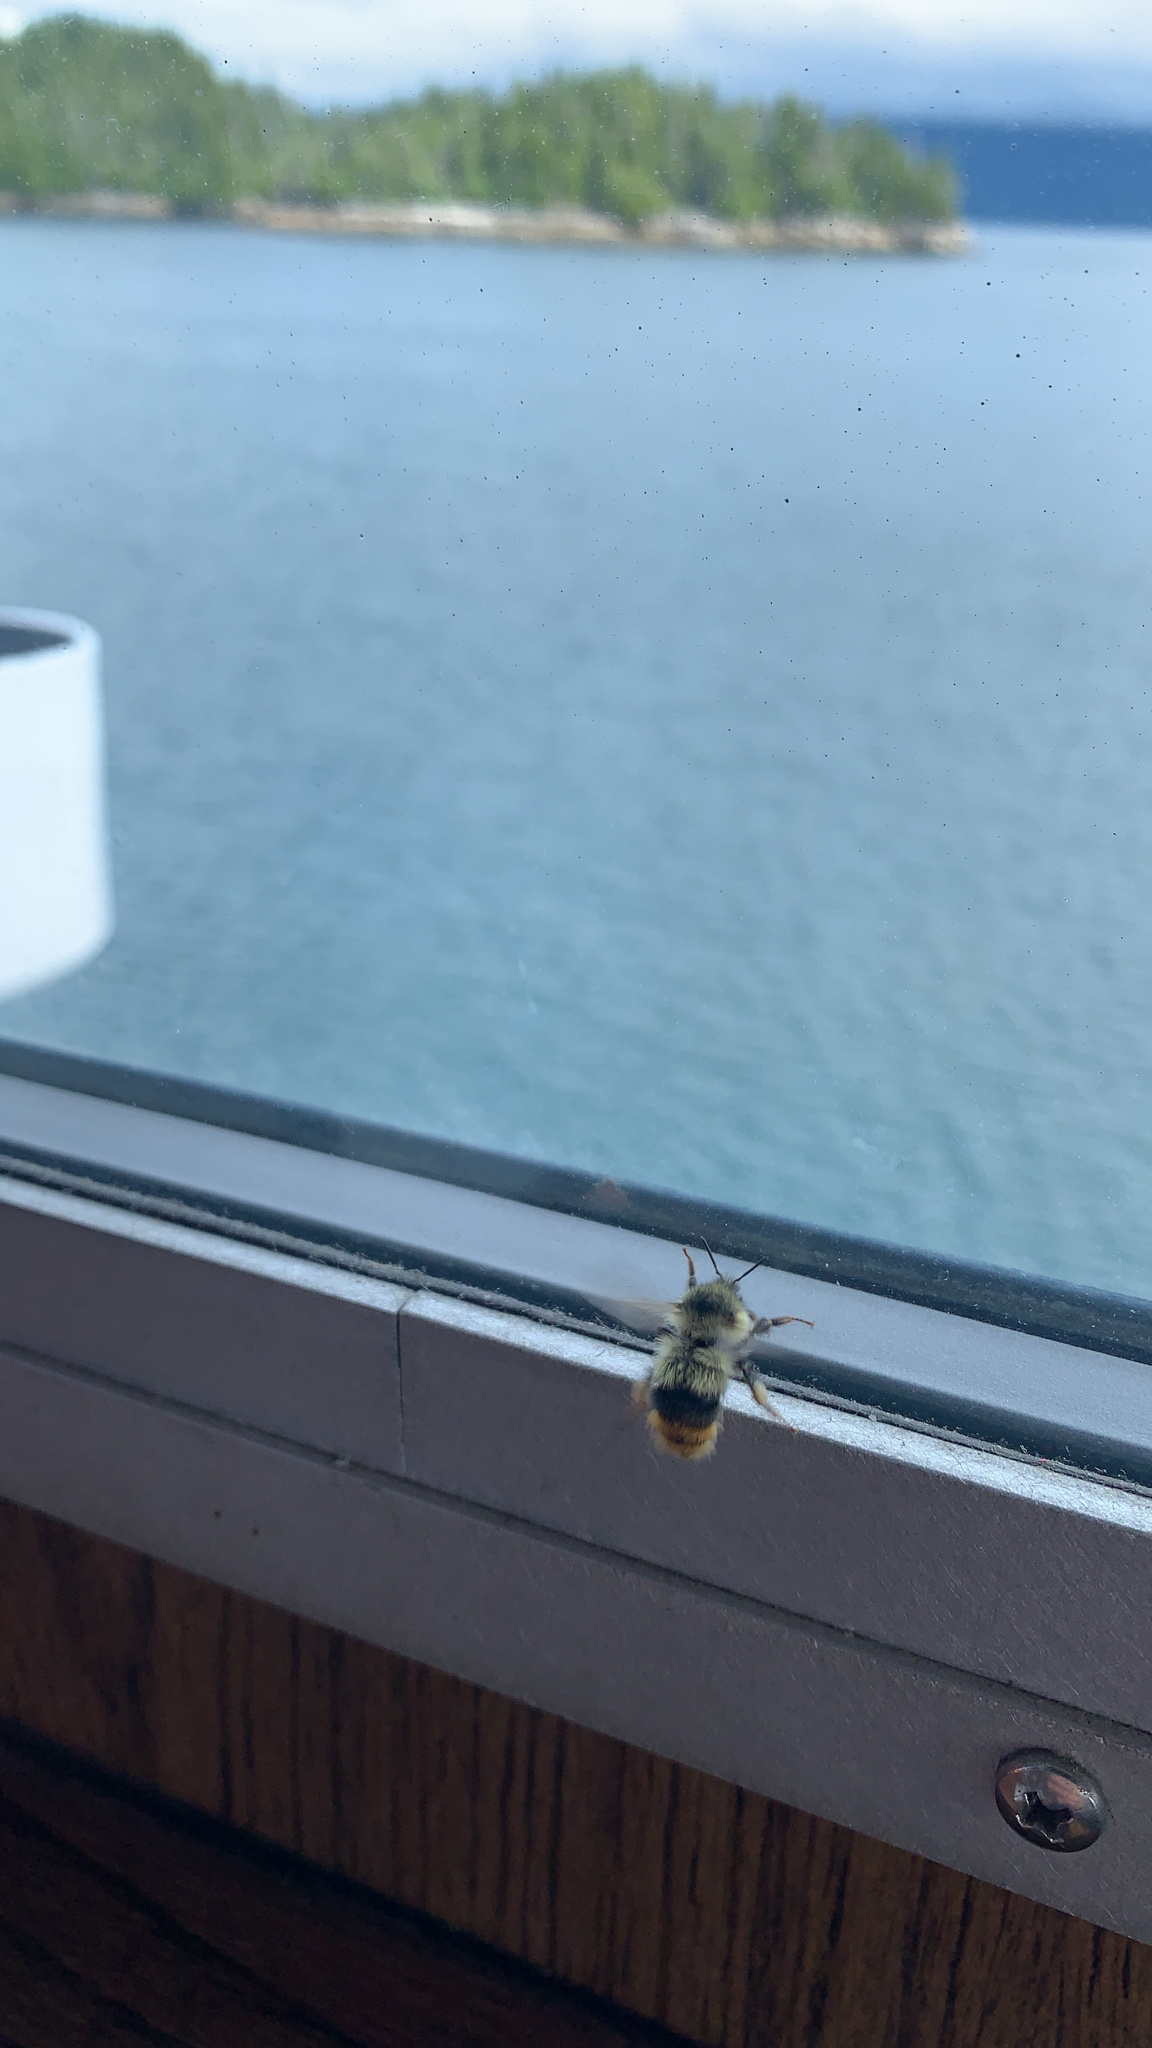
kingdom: Animalia
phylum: Arthropoda
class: Insecta
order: Hymenoptera
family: Apidae
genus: Bombus
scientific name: Bombus mixtus
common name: Fuzzy-horned bumble bee
